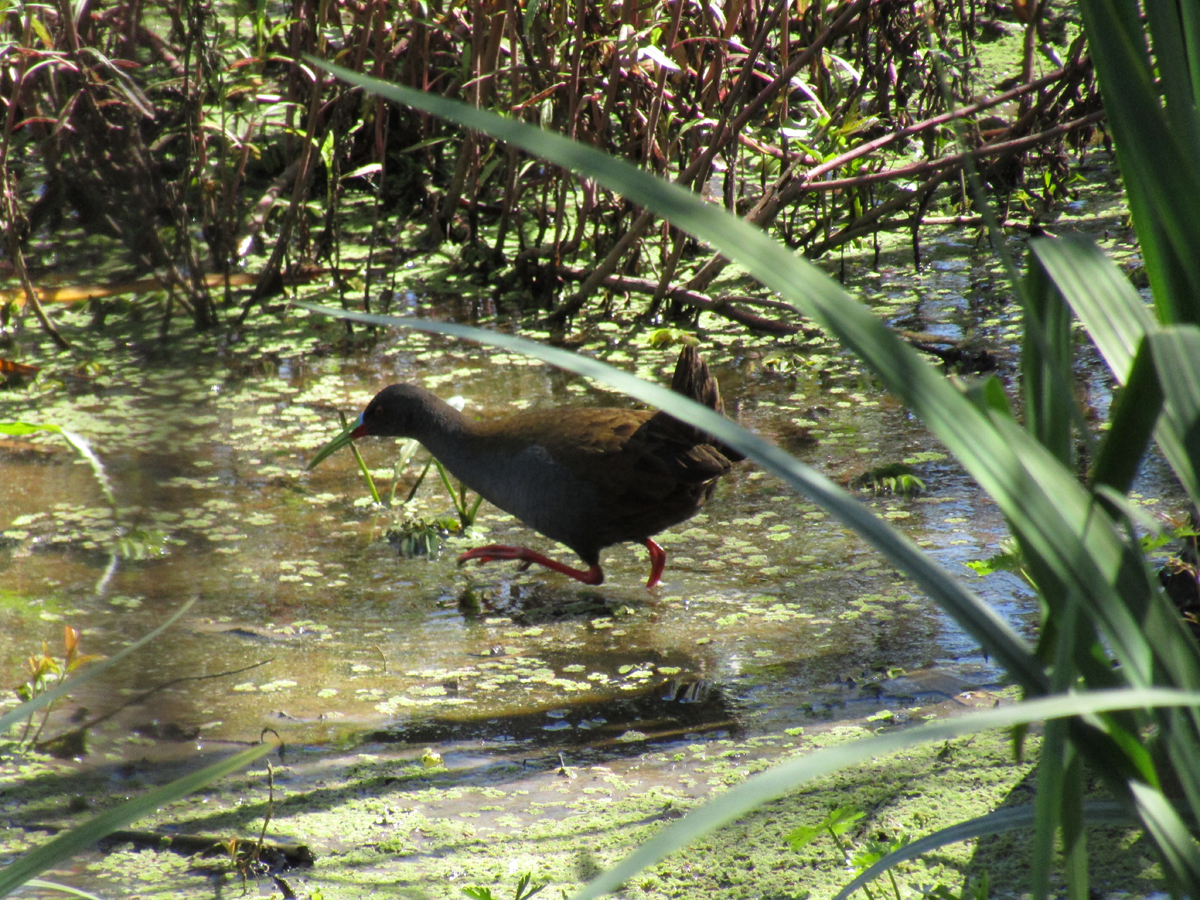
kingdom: Animalia
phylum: Chordata
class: Aves
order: Gruiformes
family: Rallidae
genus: Pardirallus
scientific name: Pardirallus sanguinolentus
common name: Plumbeous rail
